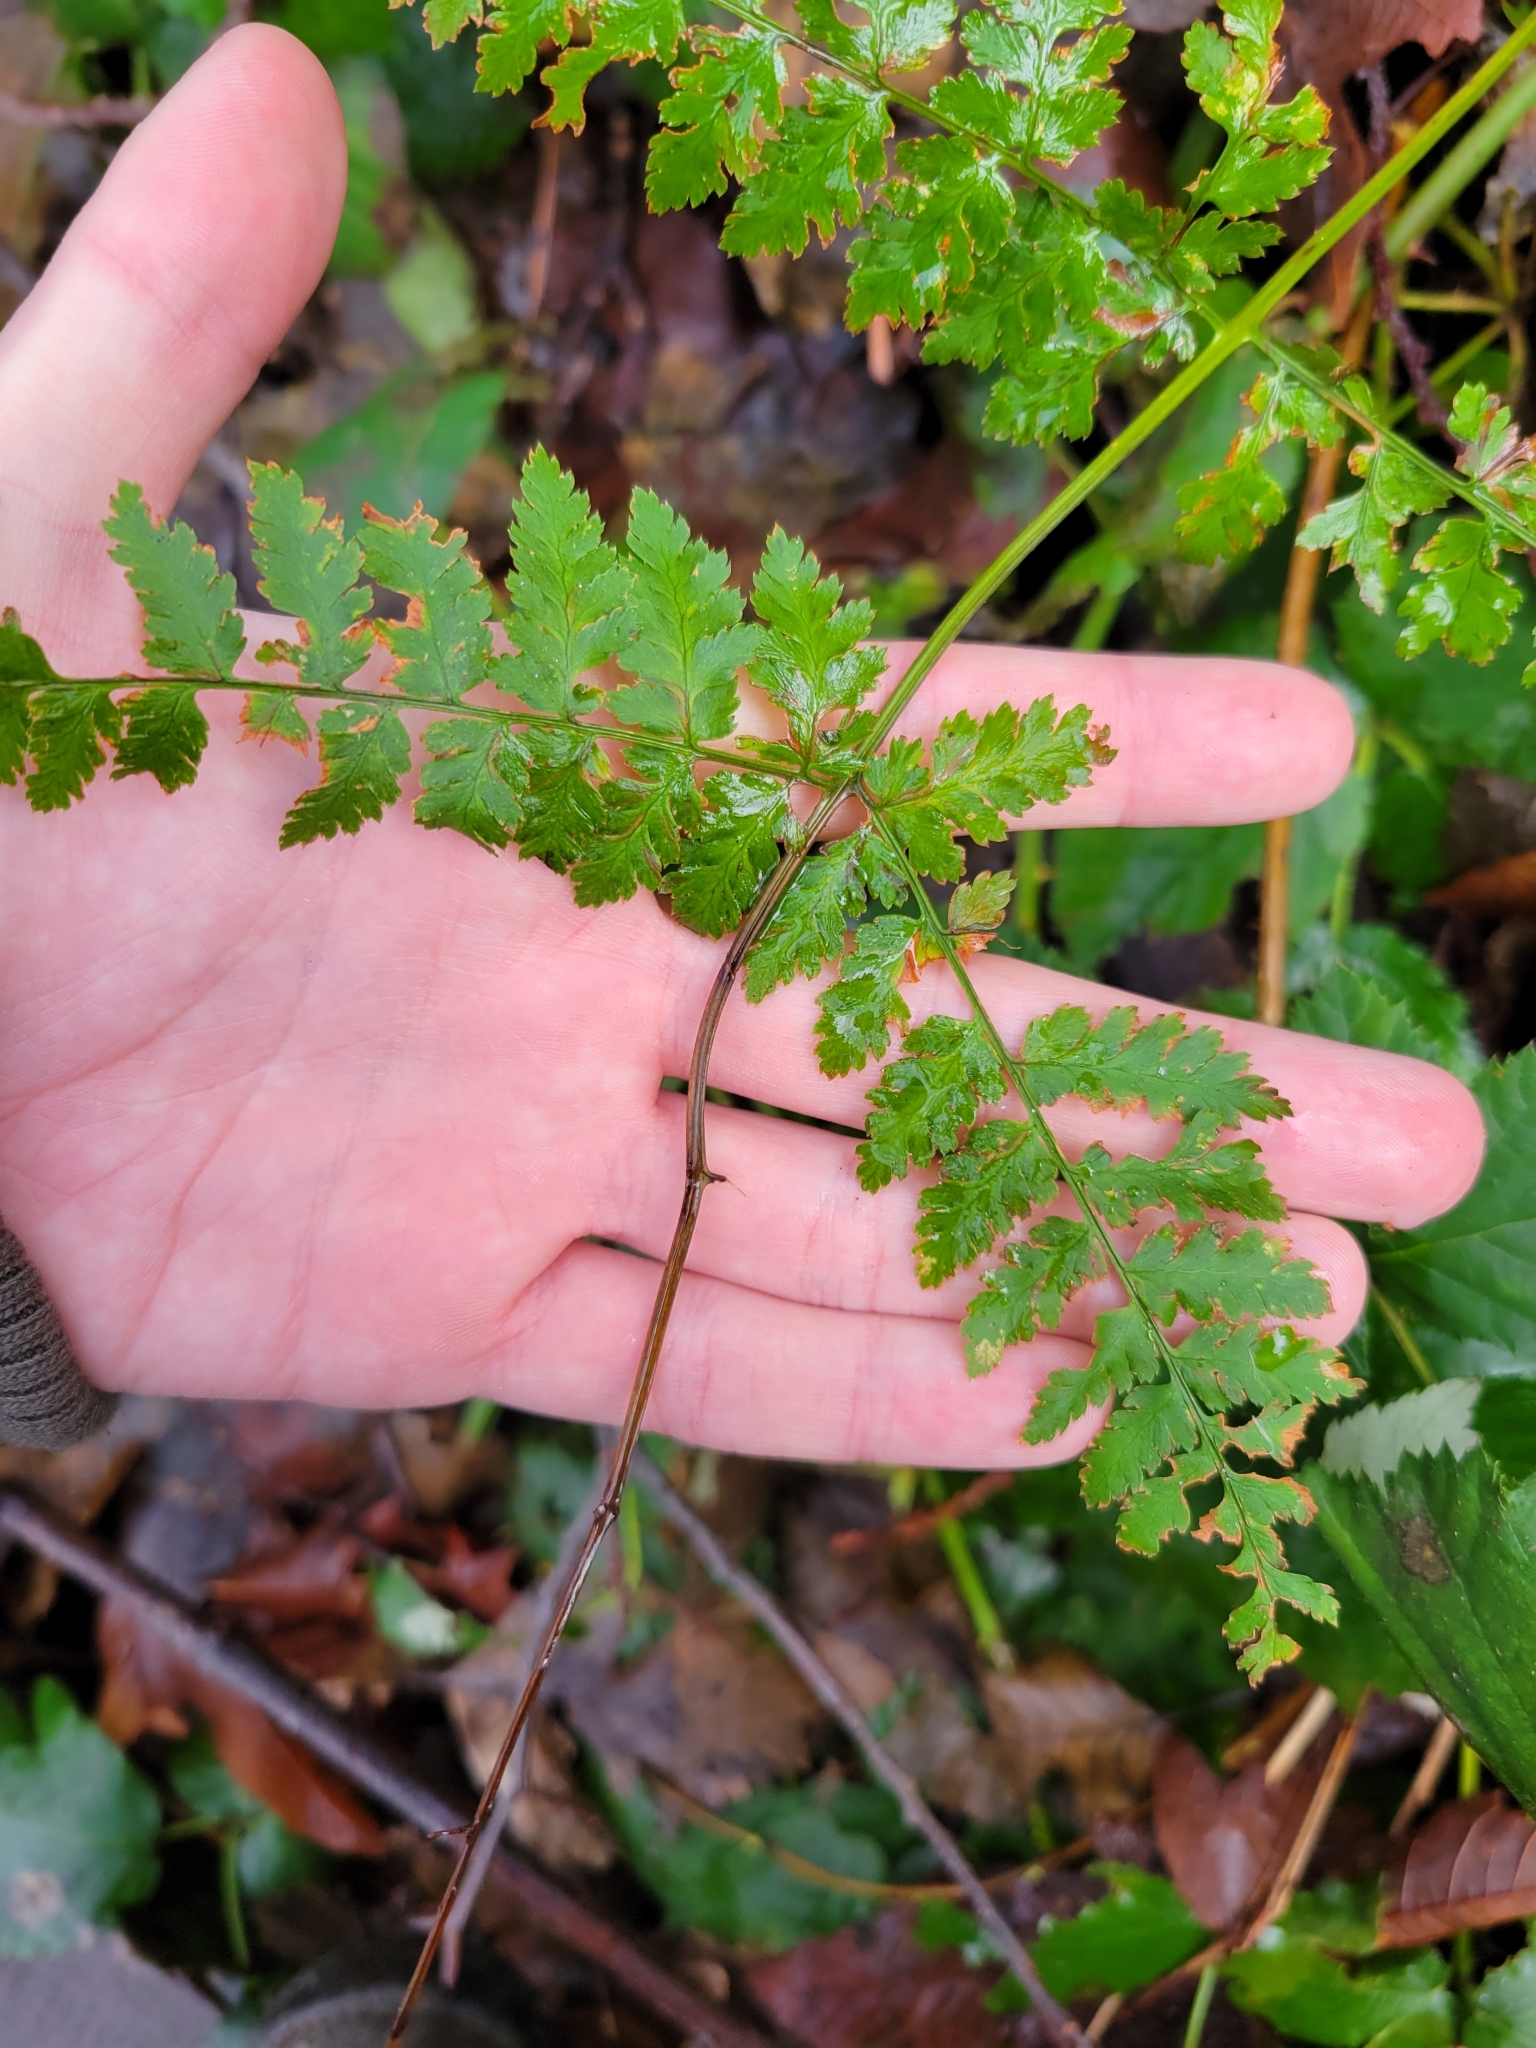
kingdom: Plantae
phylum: Tracheophyta
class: Polypodiopsida
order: Polypodiales
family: Dryopteridaceae
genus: Dryopteris
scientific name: Dryopteris expansa
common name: Northern buckler fern
